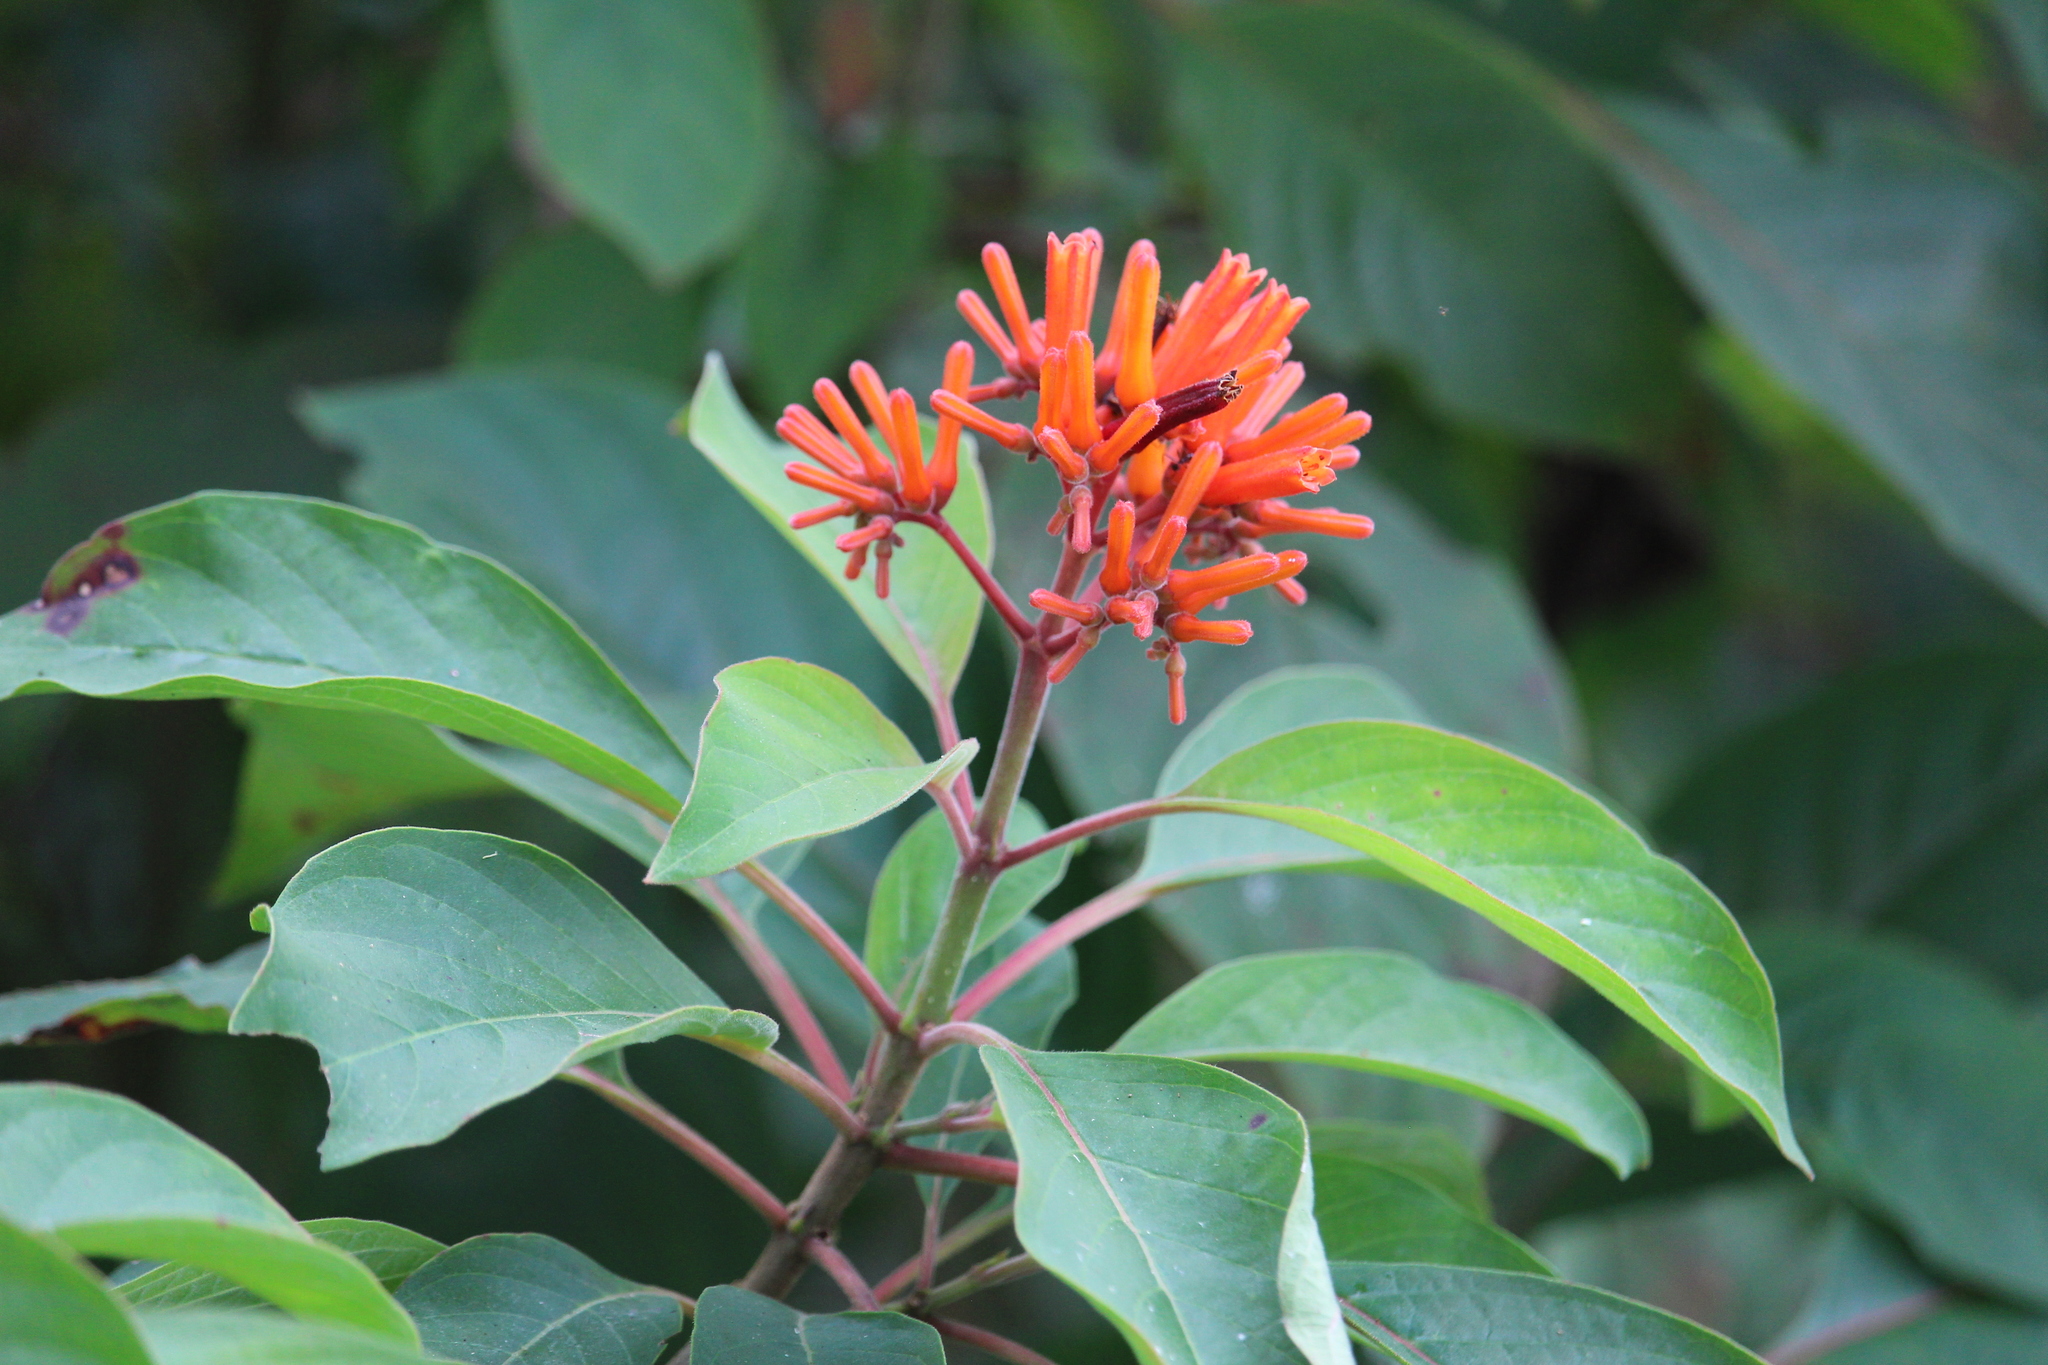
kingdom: Plantae
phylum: Tracheophyta
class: Magnoliopsida
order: Gentianales
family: Rubiaceae
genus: Hamelia
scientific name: Hamelia patens
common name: Redhead
